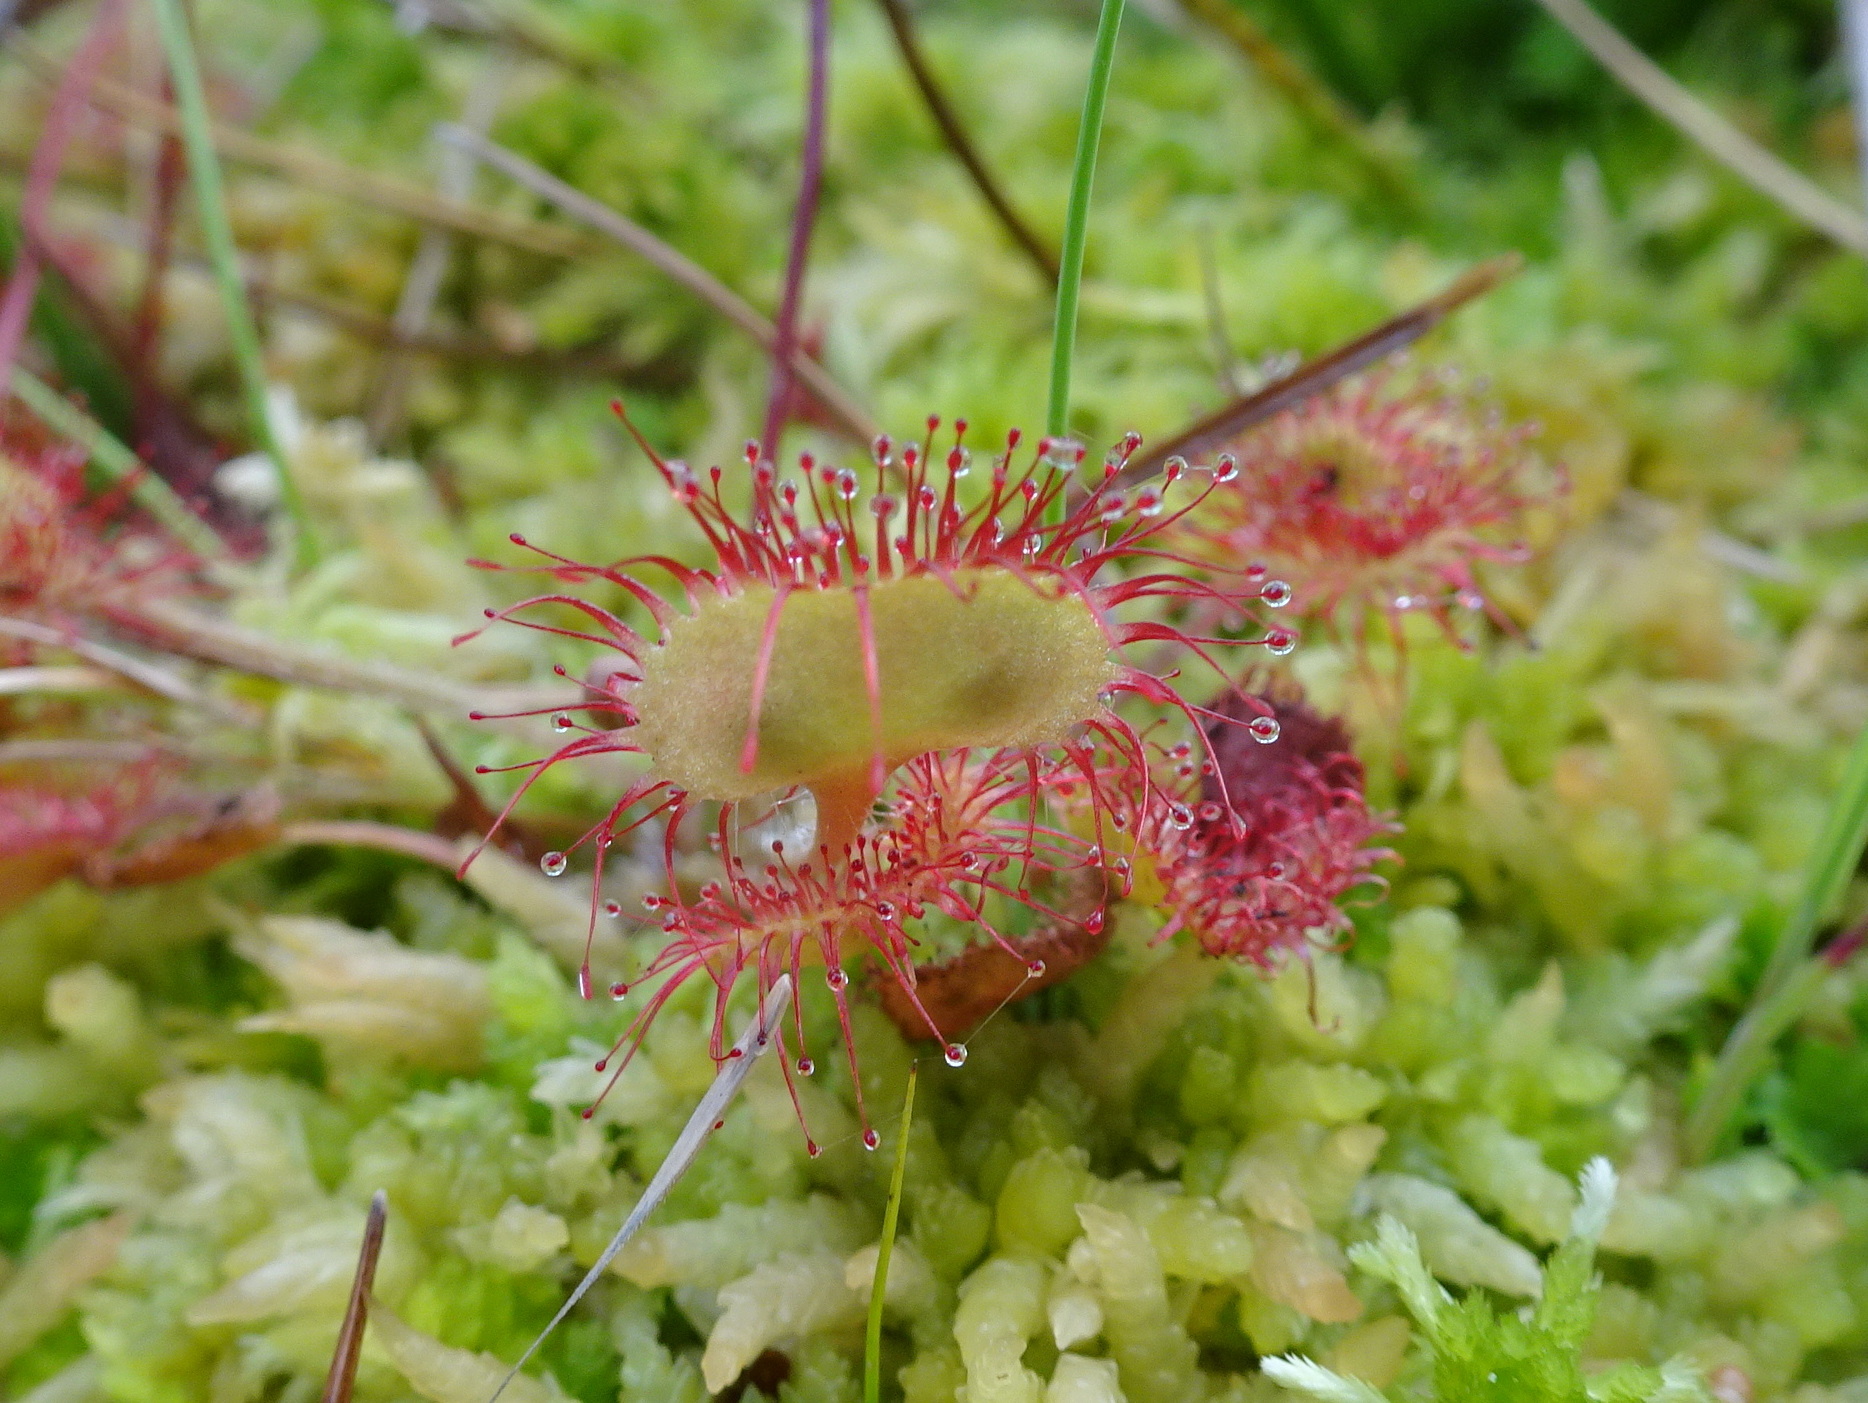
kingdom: Plantae
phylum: Tracheophyta
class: Magnoliopsida
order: Caryophyllales
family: Droseraceae
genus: Drosera
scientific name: Drosera rotundifolia
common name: Round-leaved sundew
